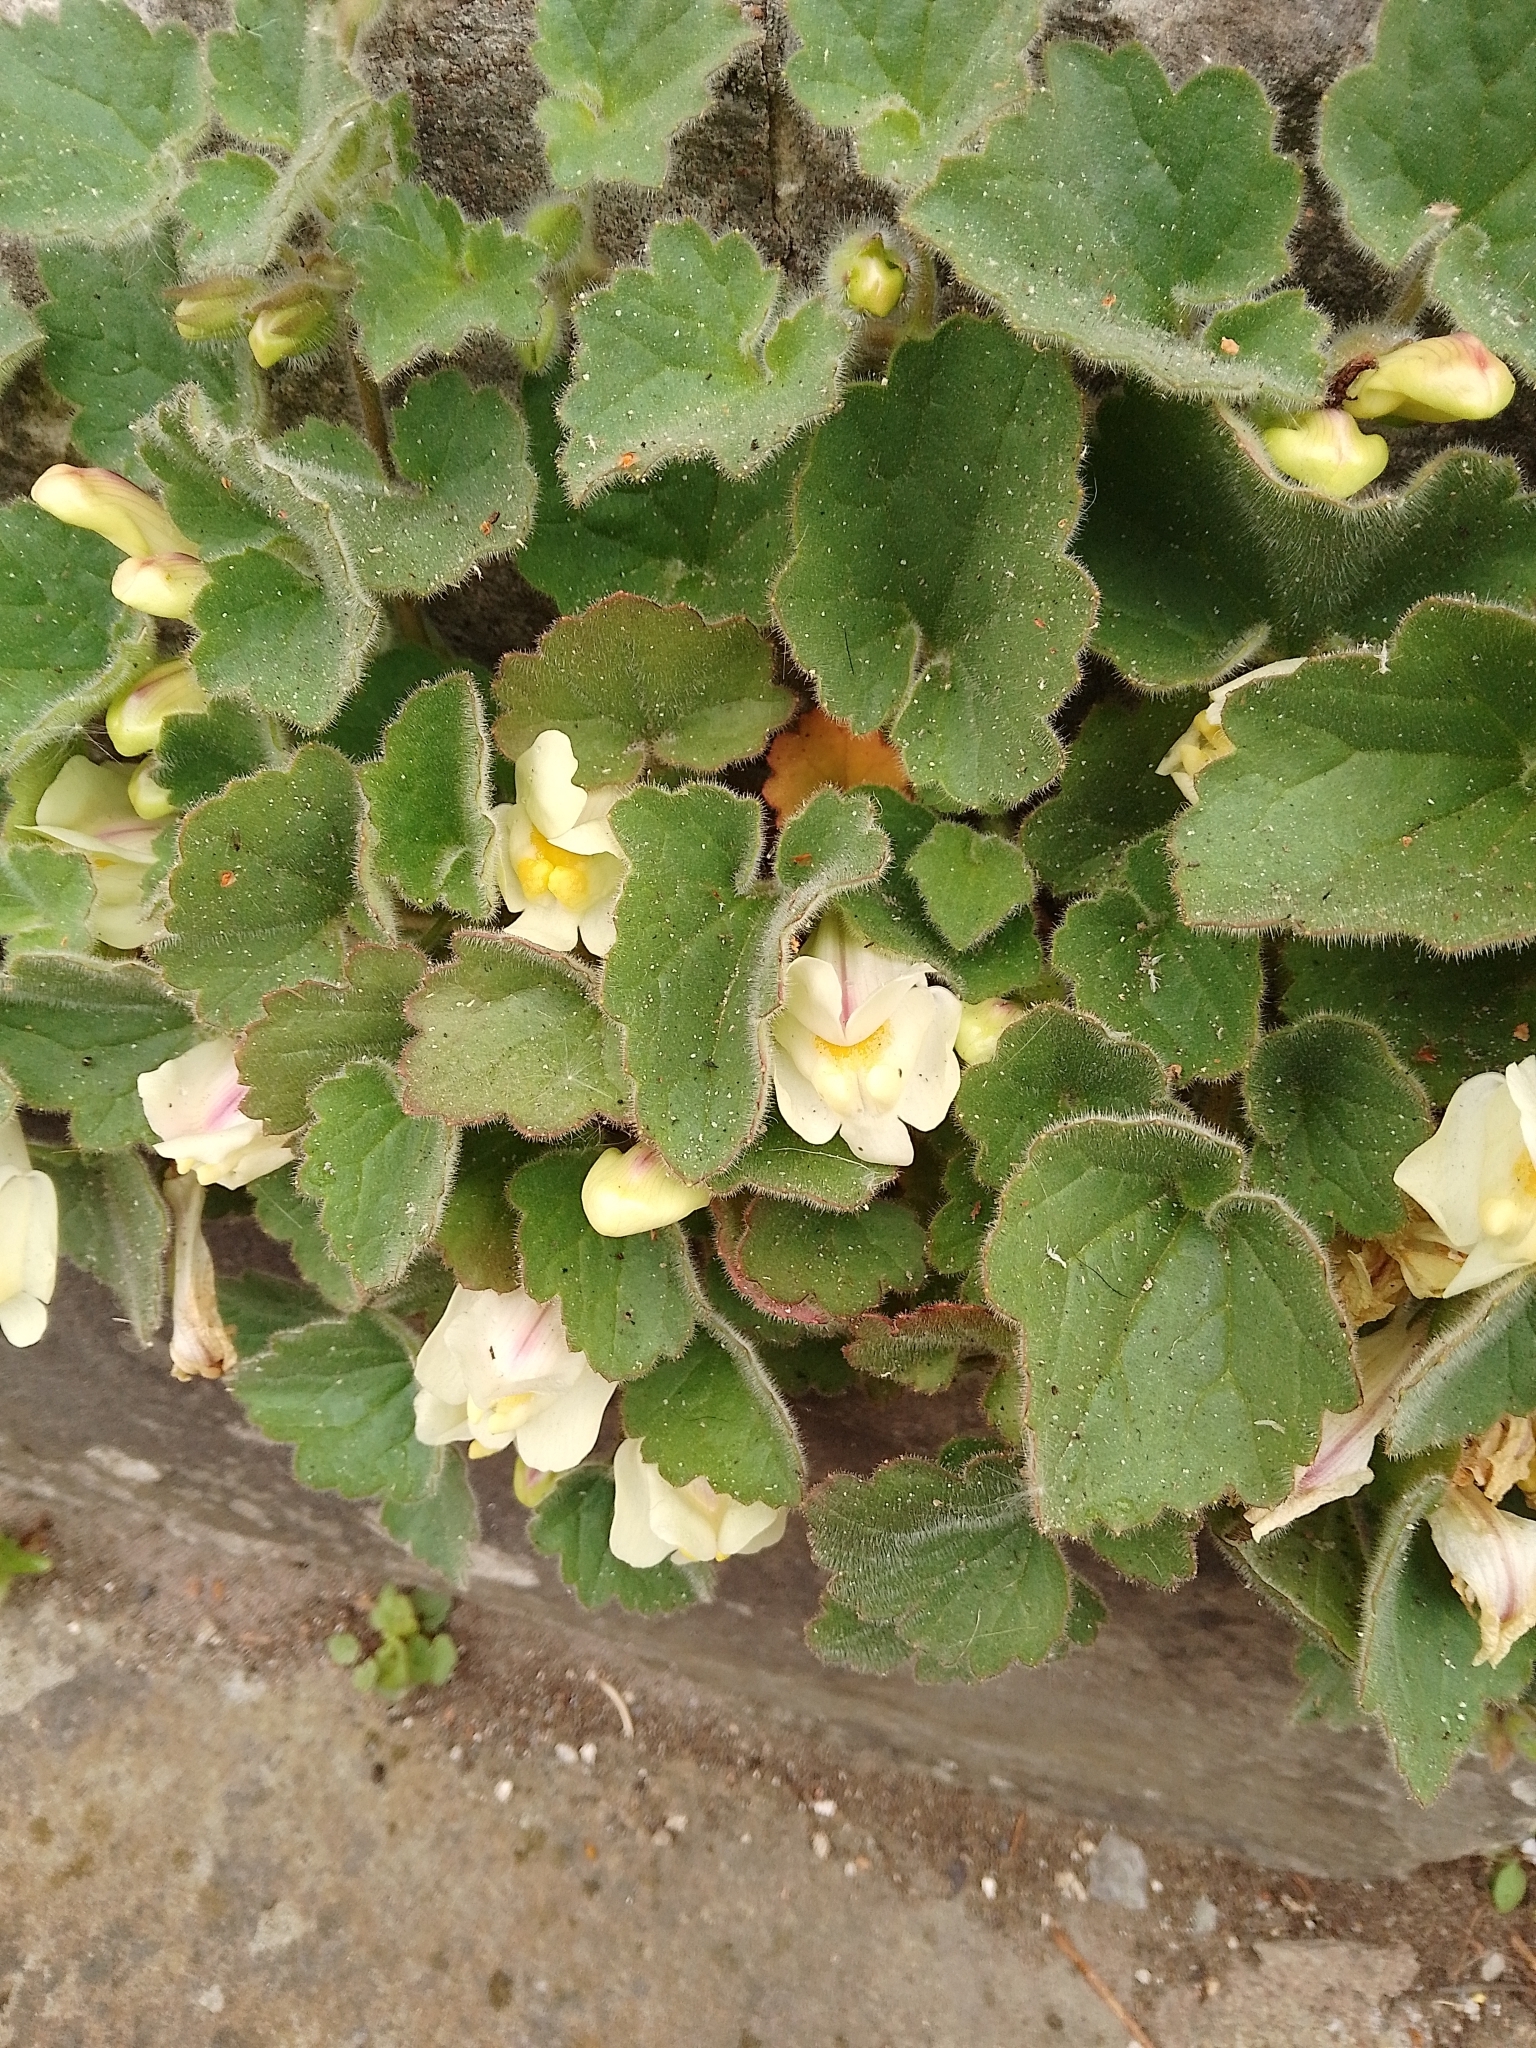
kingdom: Plantae
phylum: Tracheophyta
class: Magnoliopsida
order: Lamiales
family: Plantaginaceae
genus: Asarina
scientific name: Asarina procumbens
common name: Trailing snapdragon
